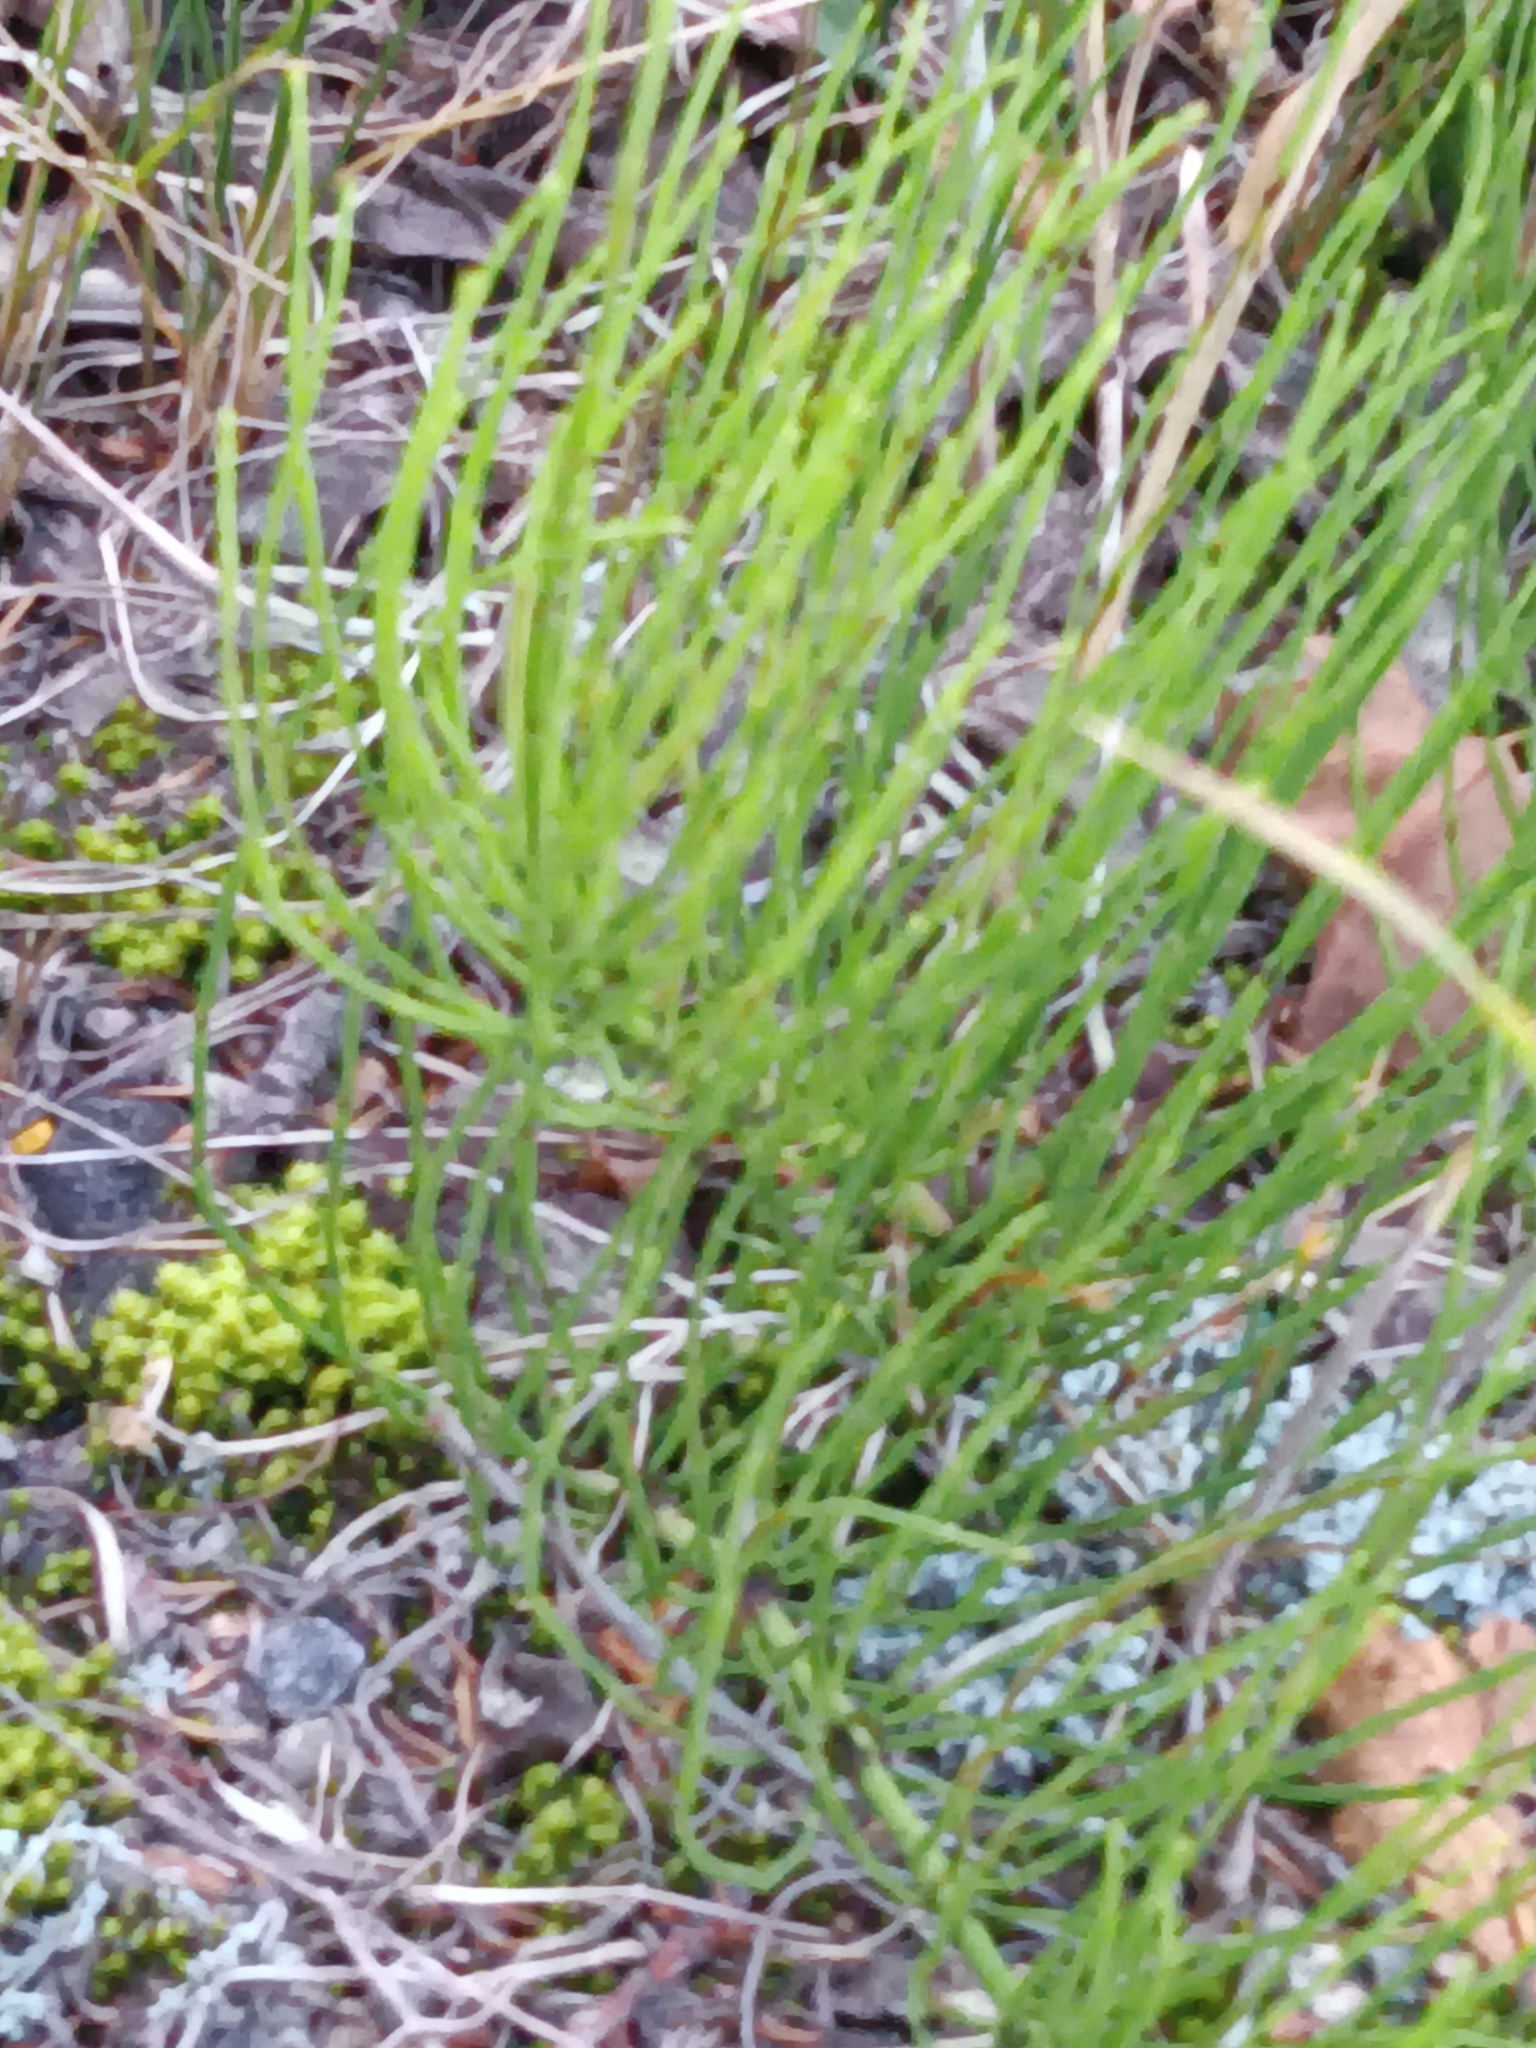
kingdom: Plantae
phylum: Tracheophyta
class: Polypodiopsida
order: Equisetales
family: Equisetaceae
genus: Equisetum
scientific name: Equisetum arvense
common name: Field horsetail
